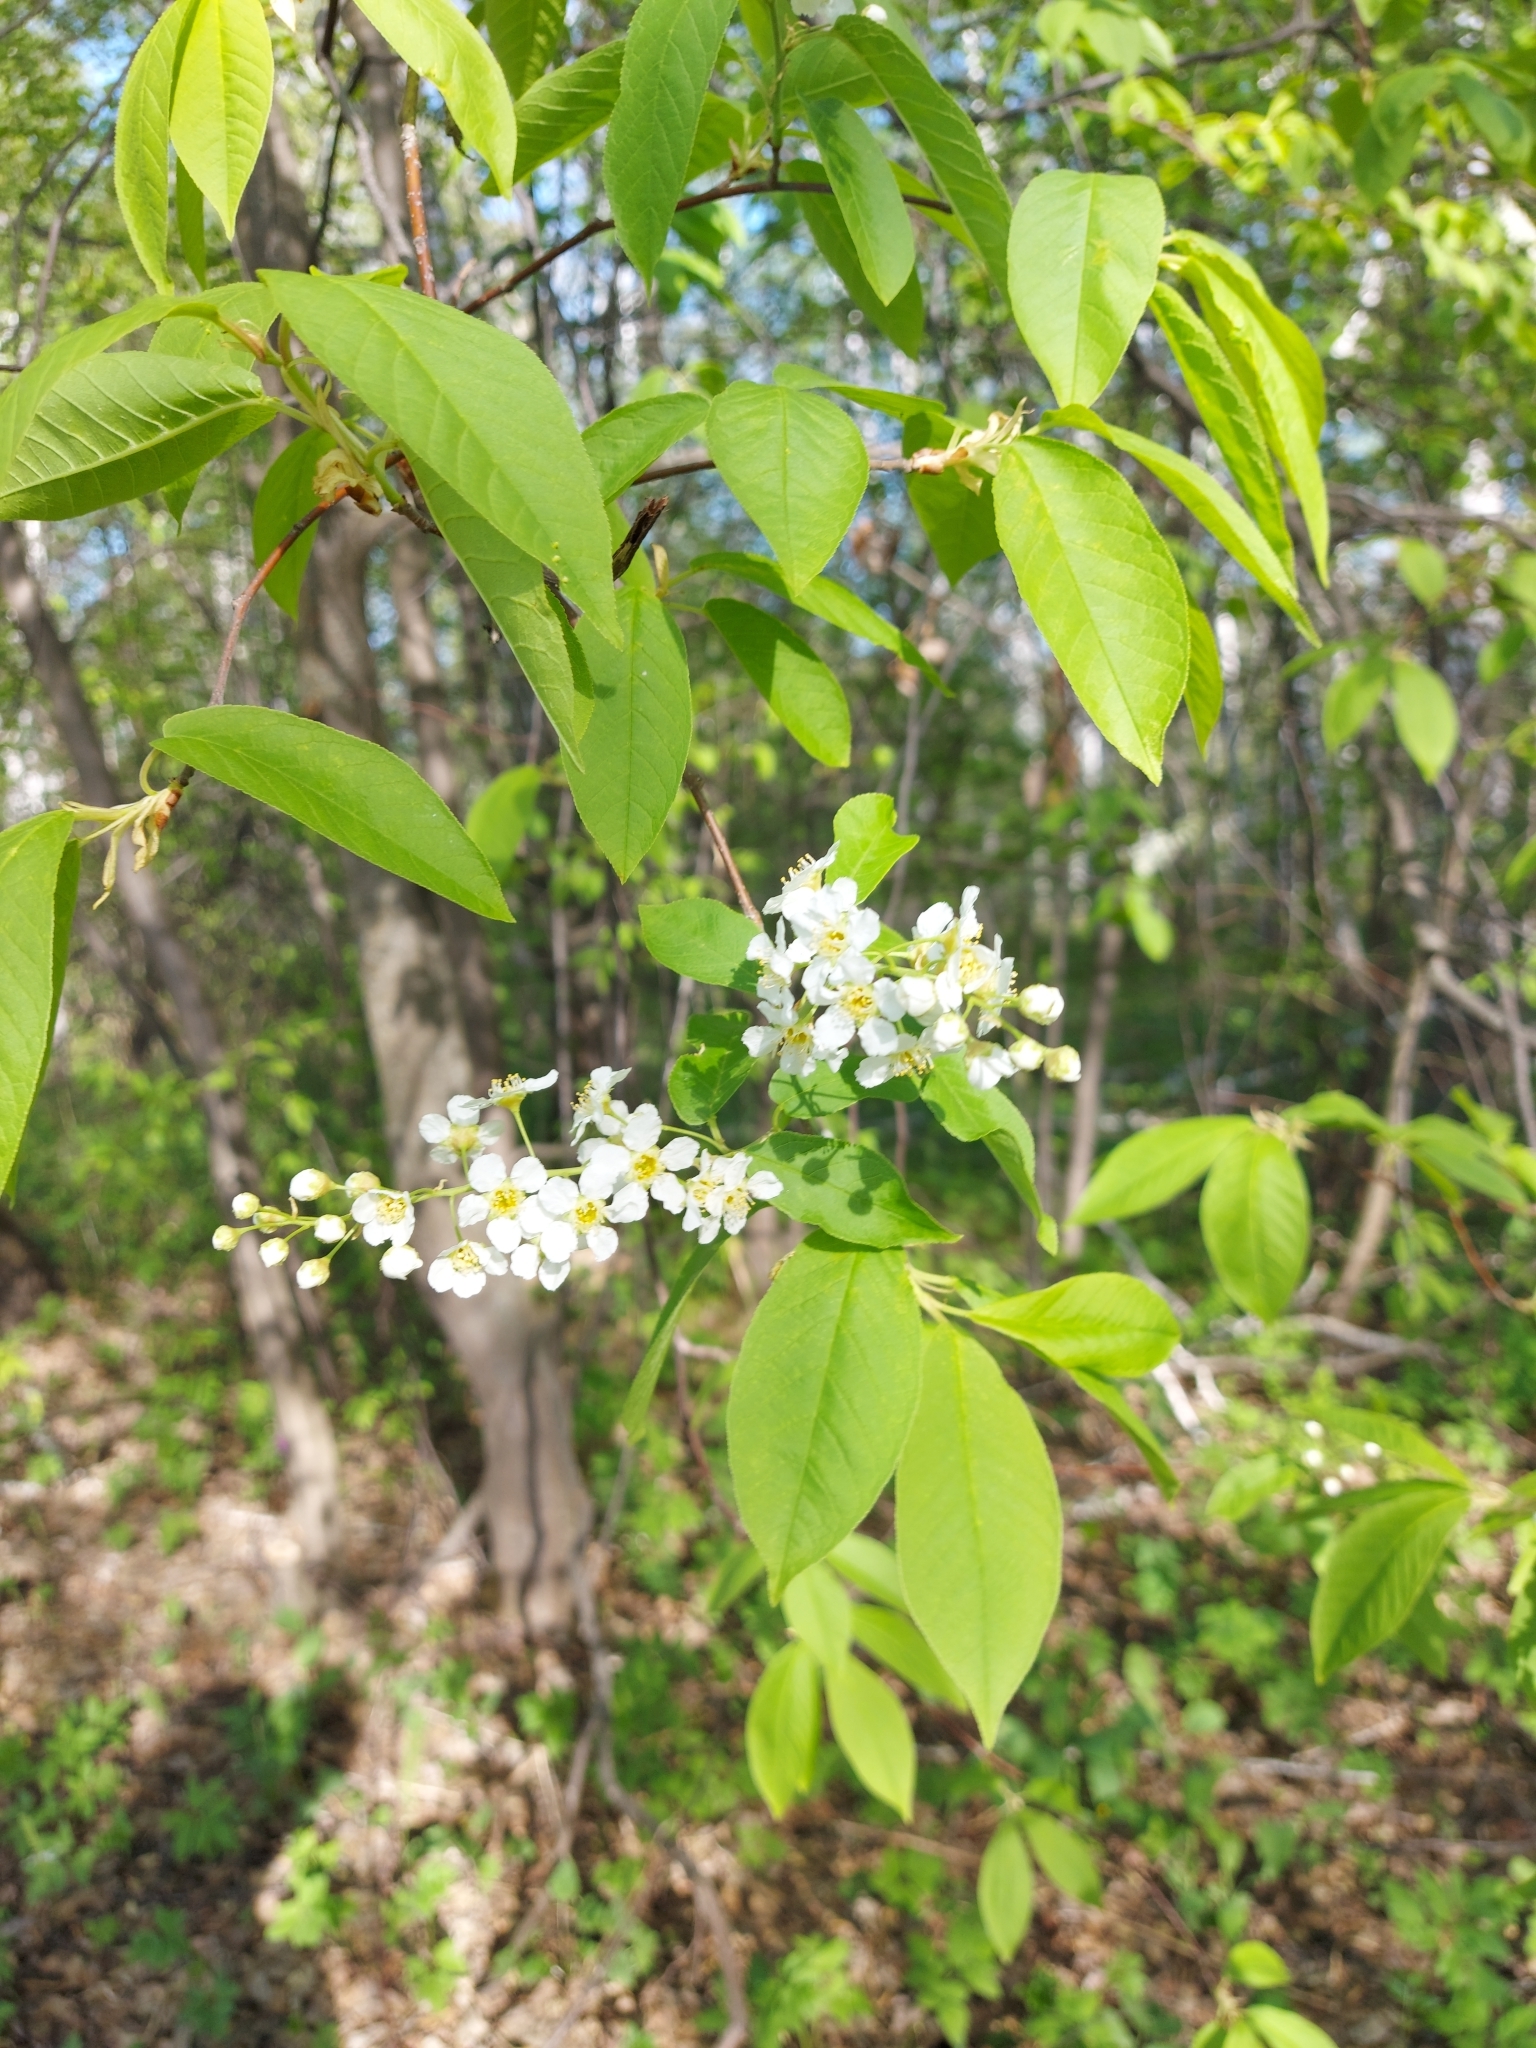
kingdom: Plantae
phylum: Tracheophyta
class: Magnoliopsida
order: Rosales
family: Rosaceae
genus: Prunus
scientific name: Prunus padus
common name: Bird cherry
